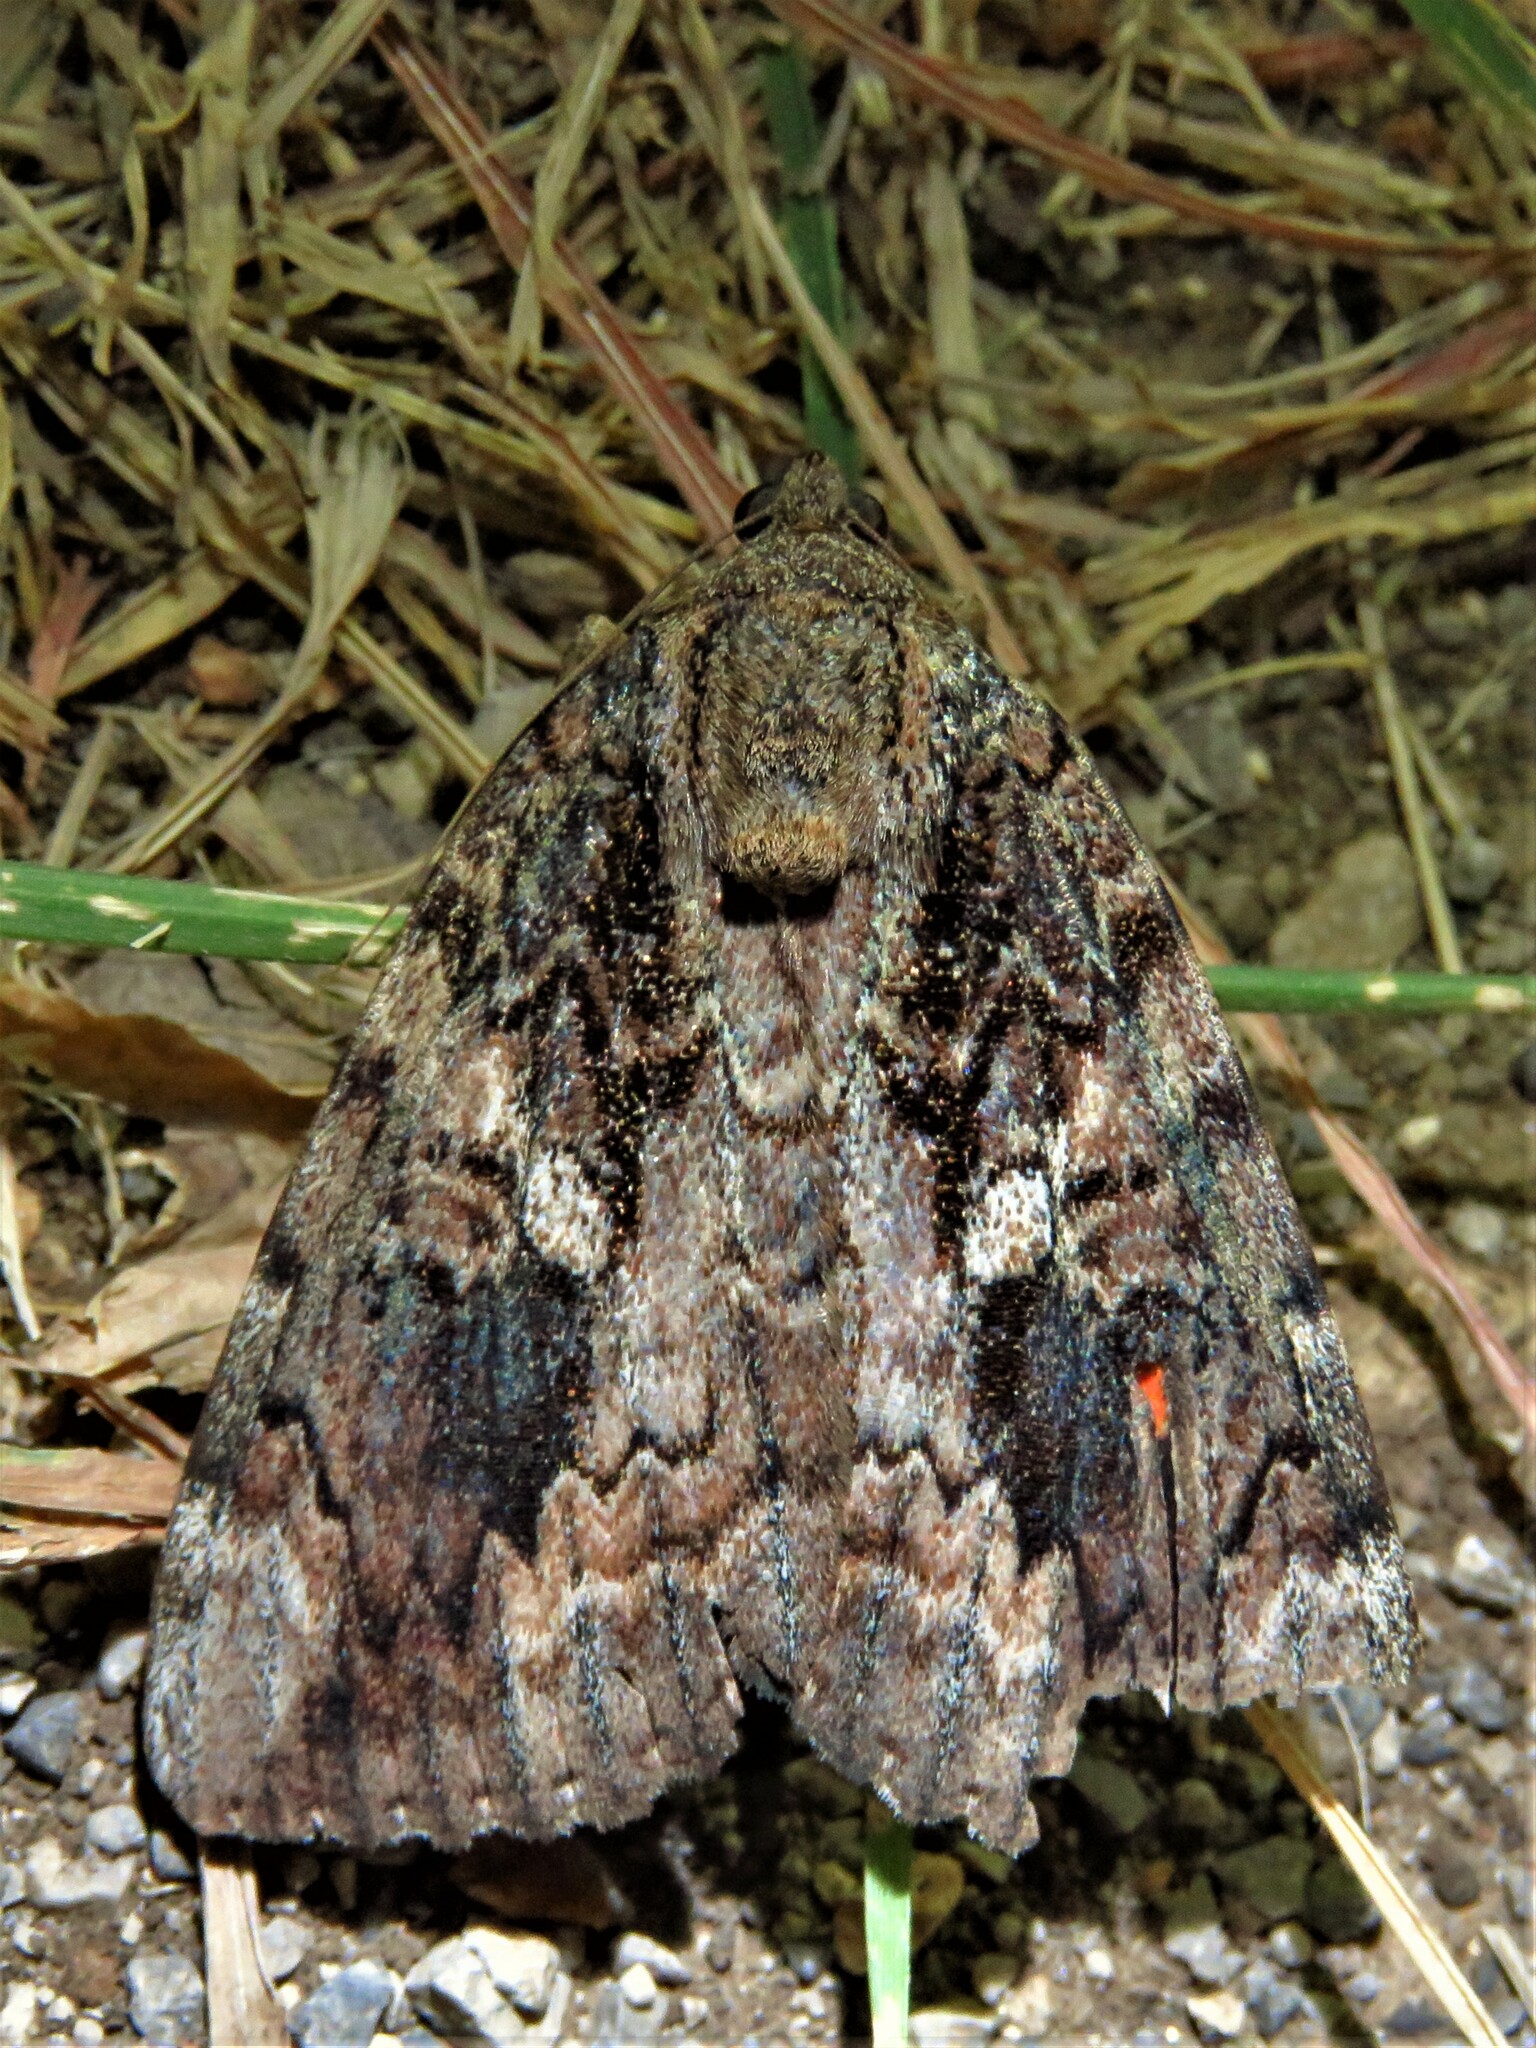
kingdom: Animalia
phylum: Arthropoda
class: Insecta
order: Lepidoptera
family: Erebidae
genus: Catocala
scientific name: Catocala innubens
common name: Betrothed underwing
